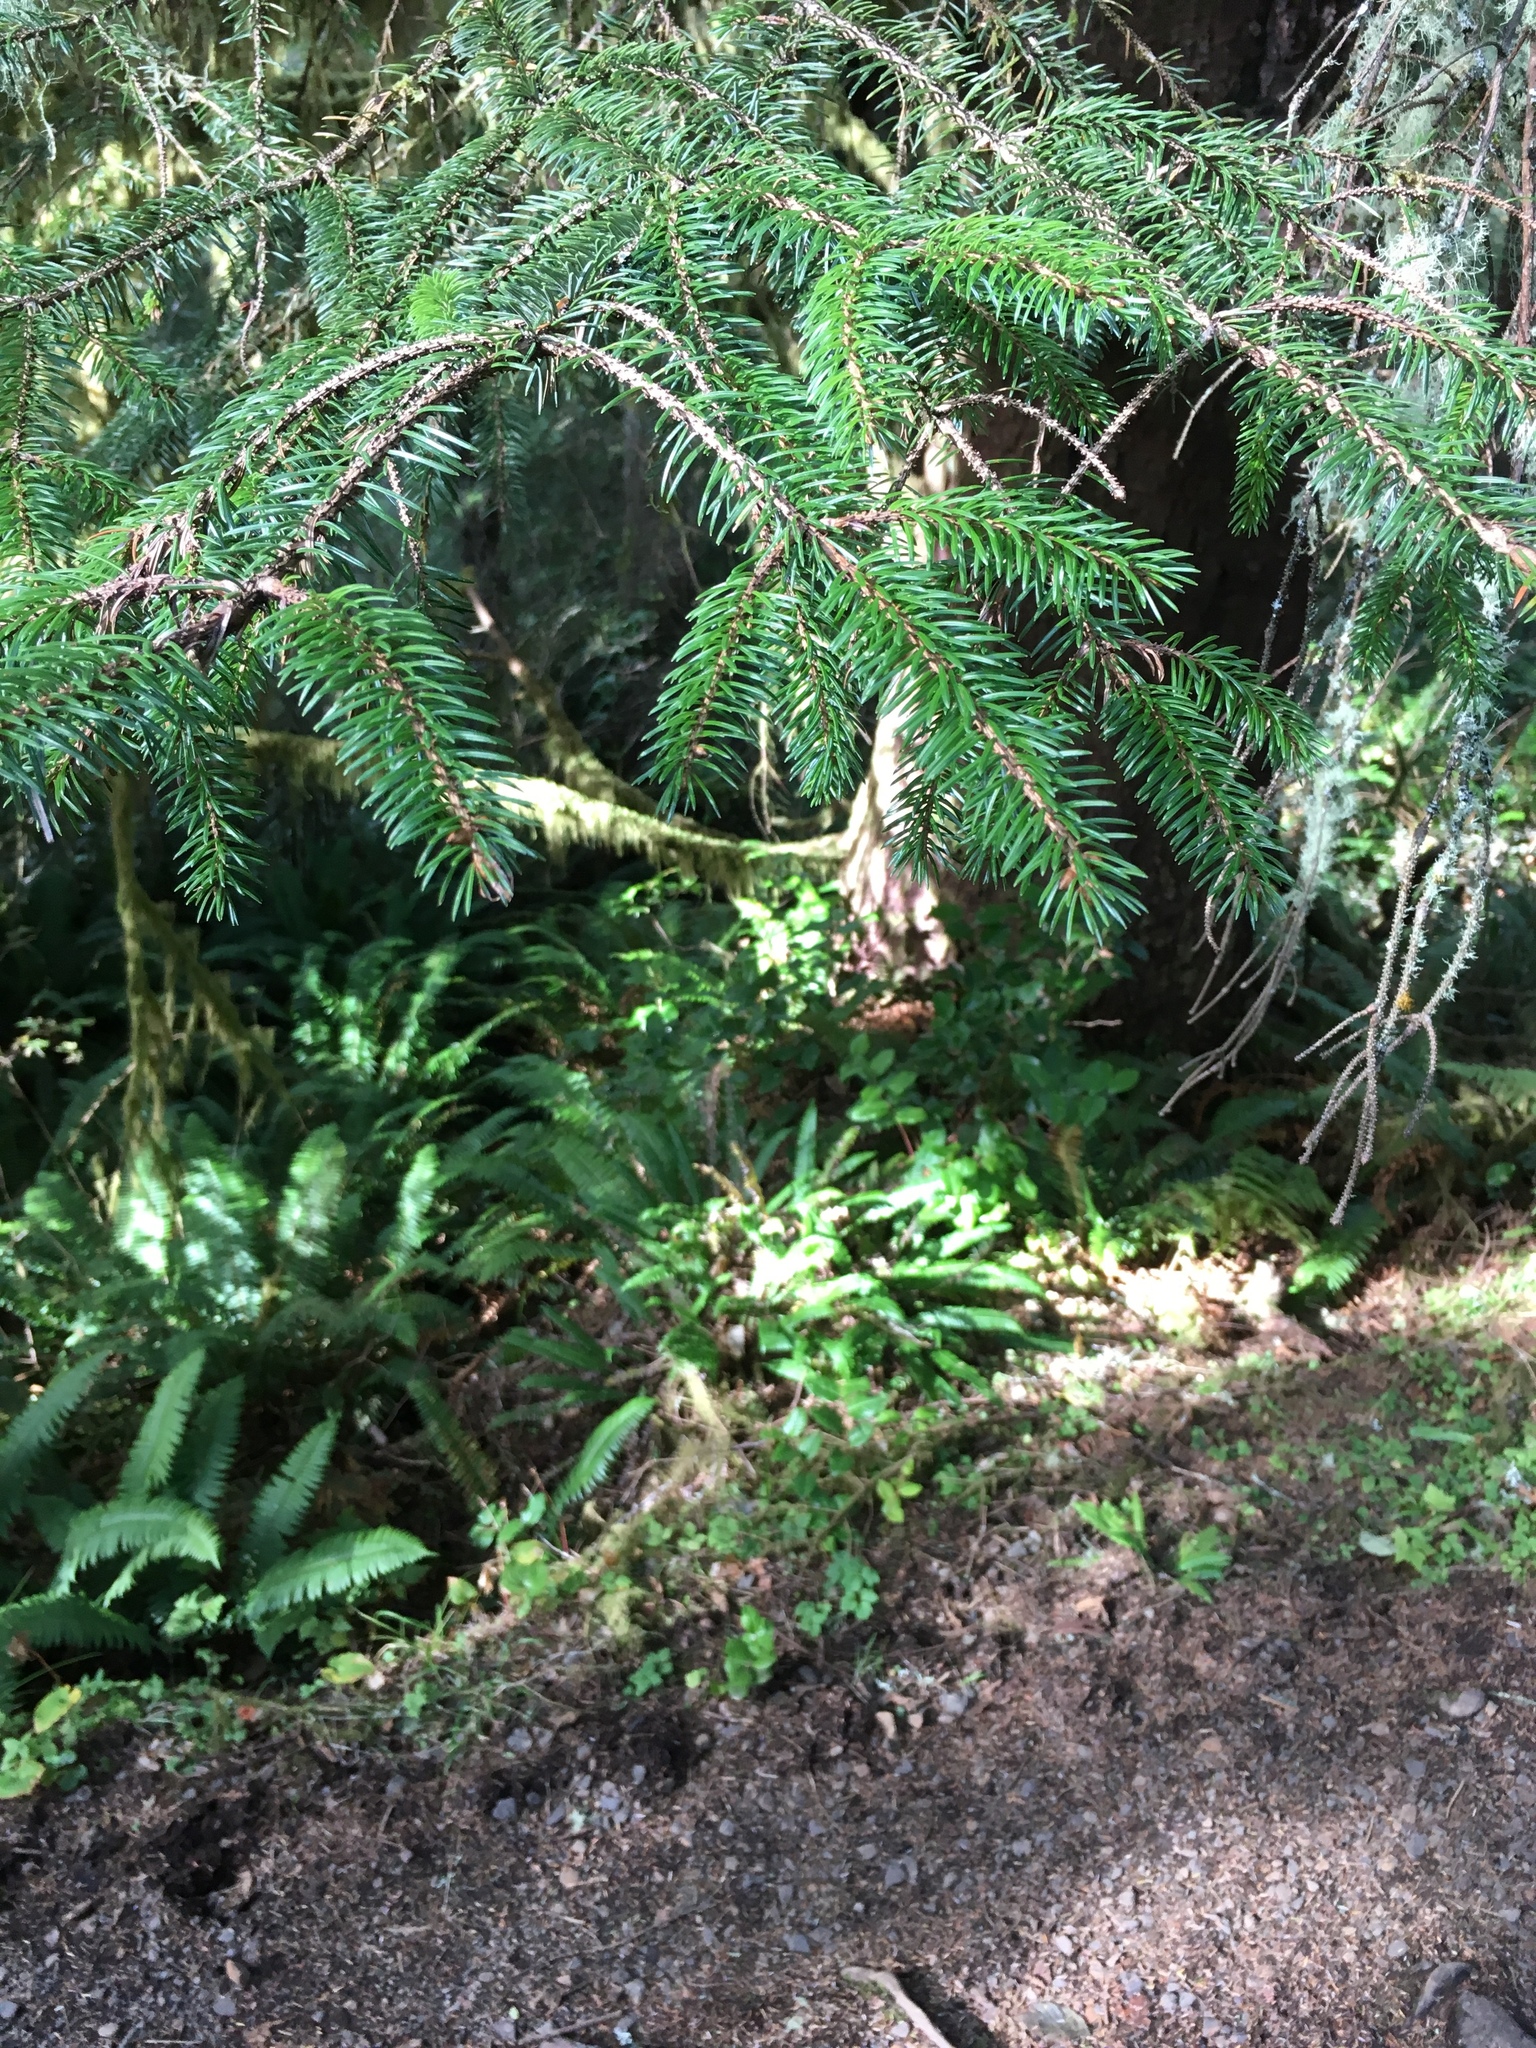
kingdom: Plantae
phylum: Tracheophyta
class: Pinopsida
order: Pinales
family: Pinaceae
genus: Picea
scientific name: Picea sitchensis
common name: Sitka spruce
